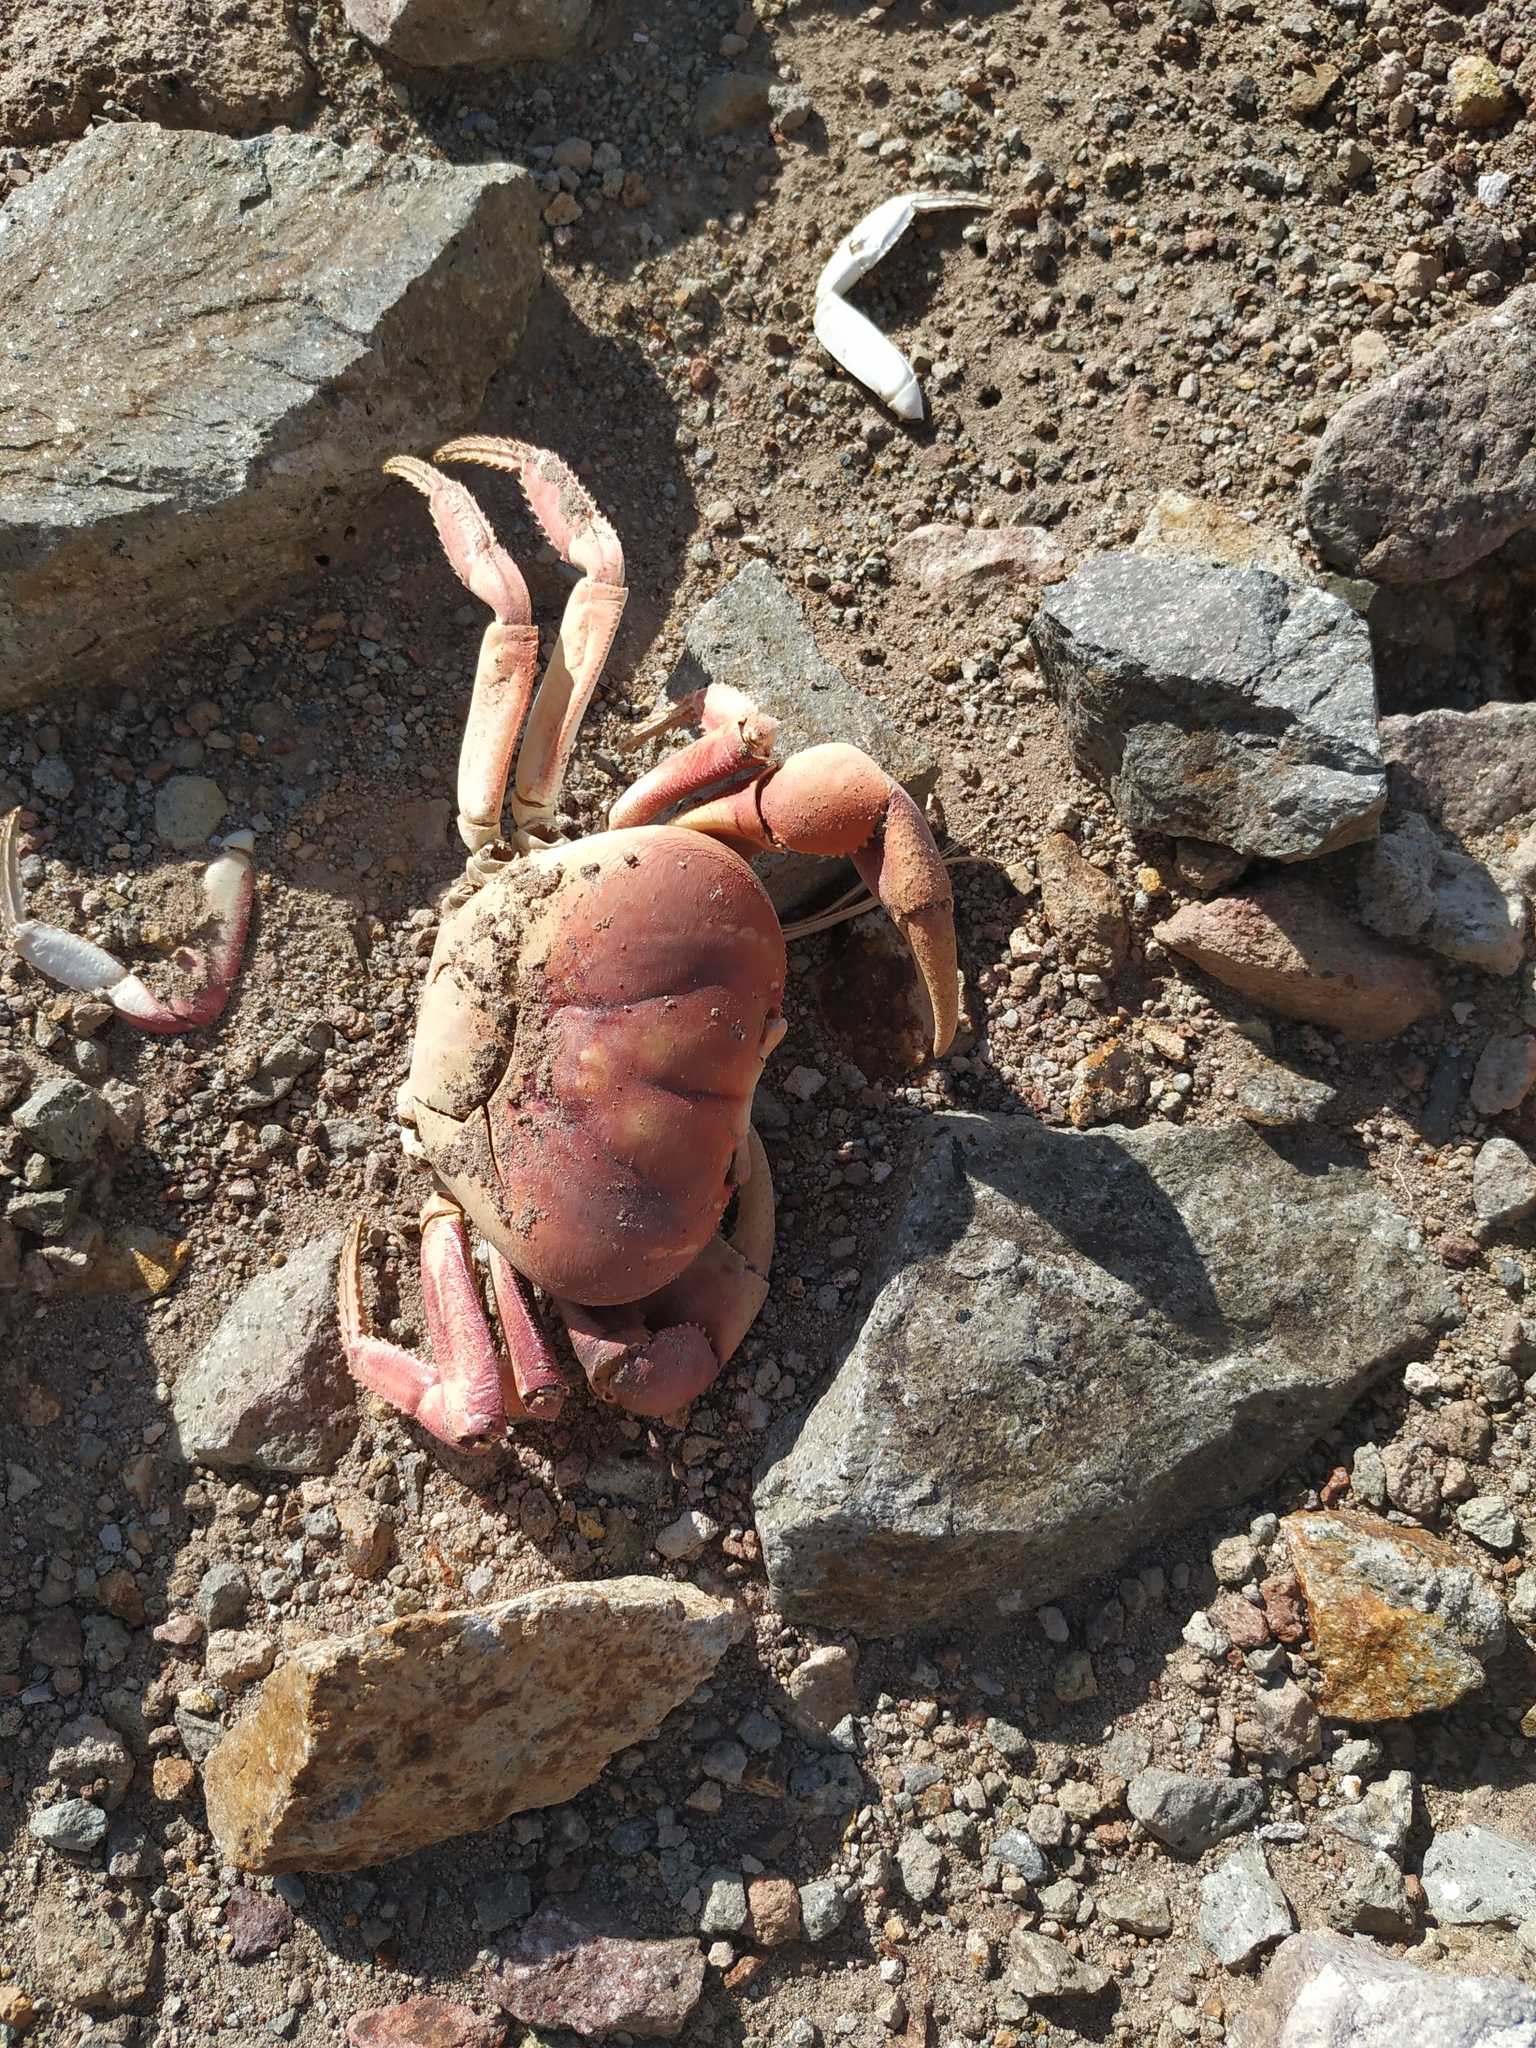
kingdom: Animalia
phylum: Arthropoda
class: Malacostraca
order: Decapoda
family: Gecarcinidae
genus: Gecarcinus
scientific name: Gecarcinus ruricola
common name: Black land crab
